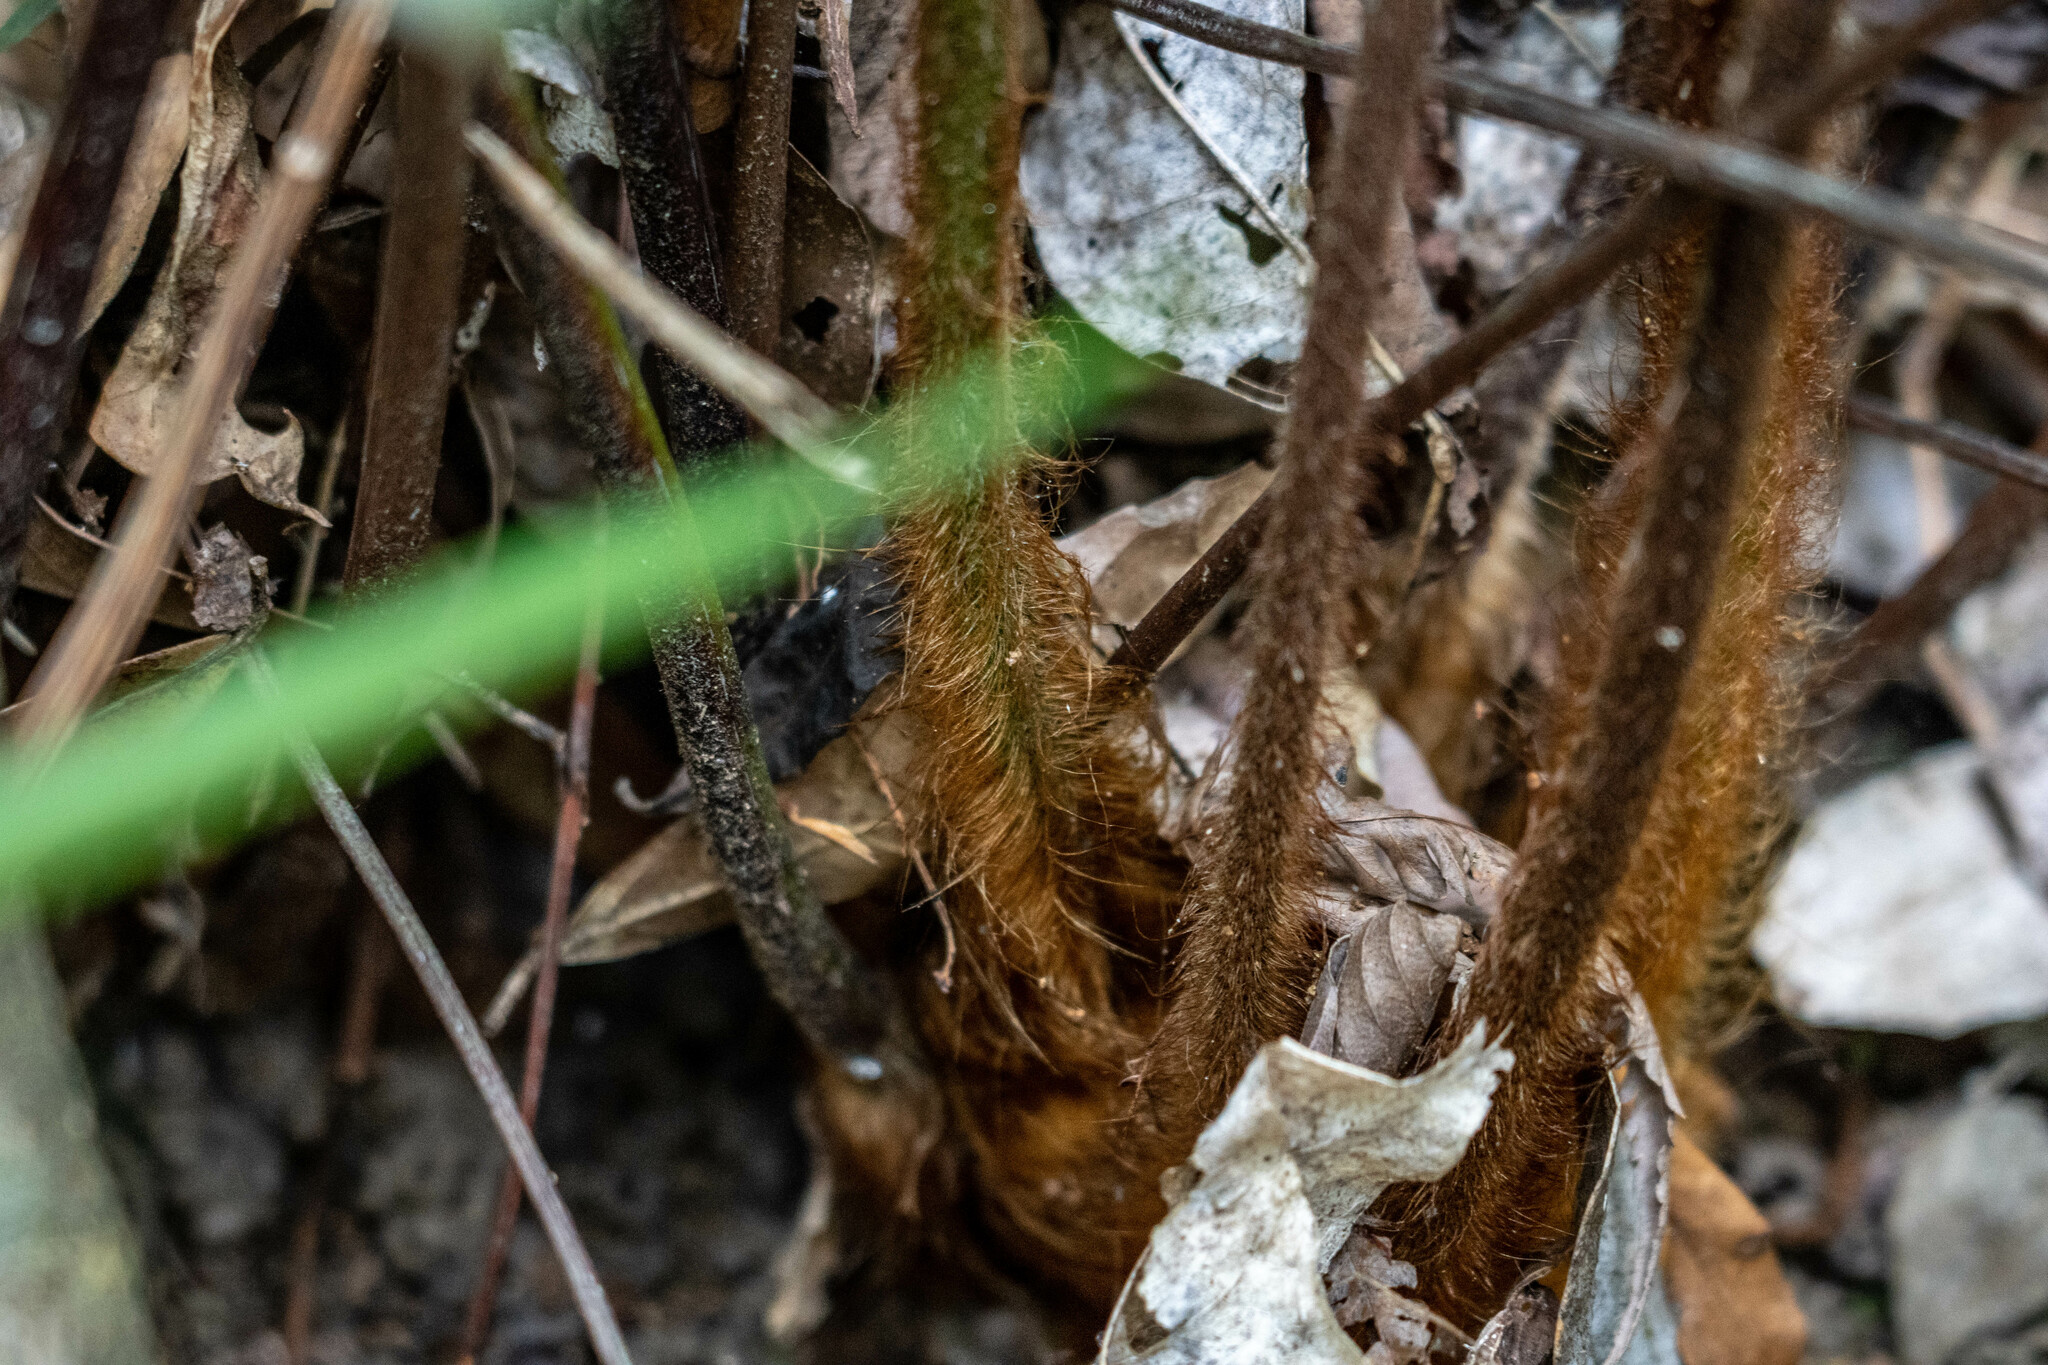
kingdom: Plantae
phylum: Tracheophyta
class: Polypodiopsida
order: Cyatheales
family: Cibotiaceae
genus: Cibotium
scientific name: Cibotium barometz
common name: Scythian-lamb
